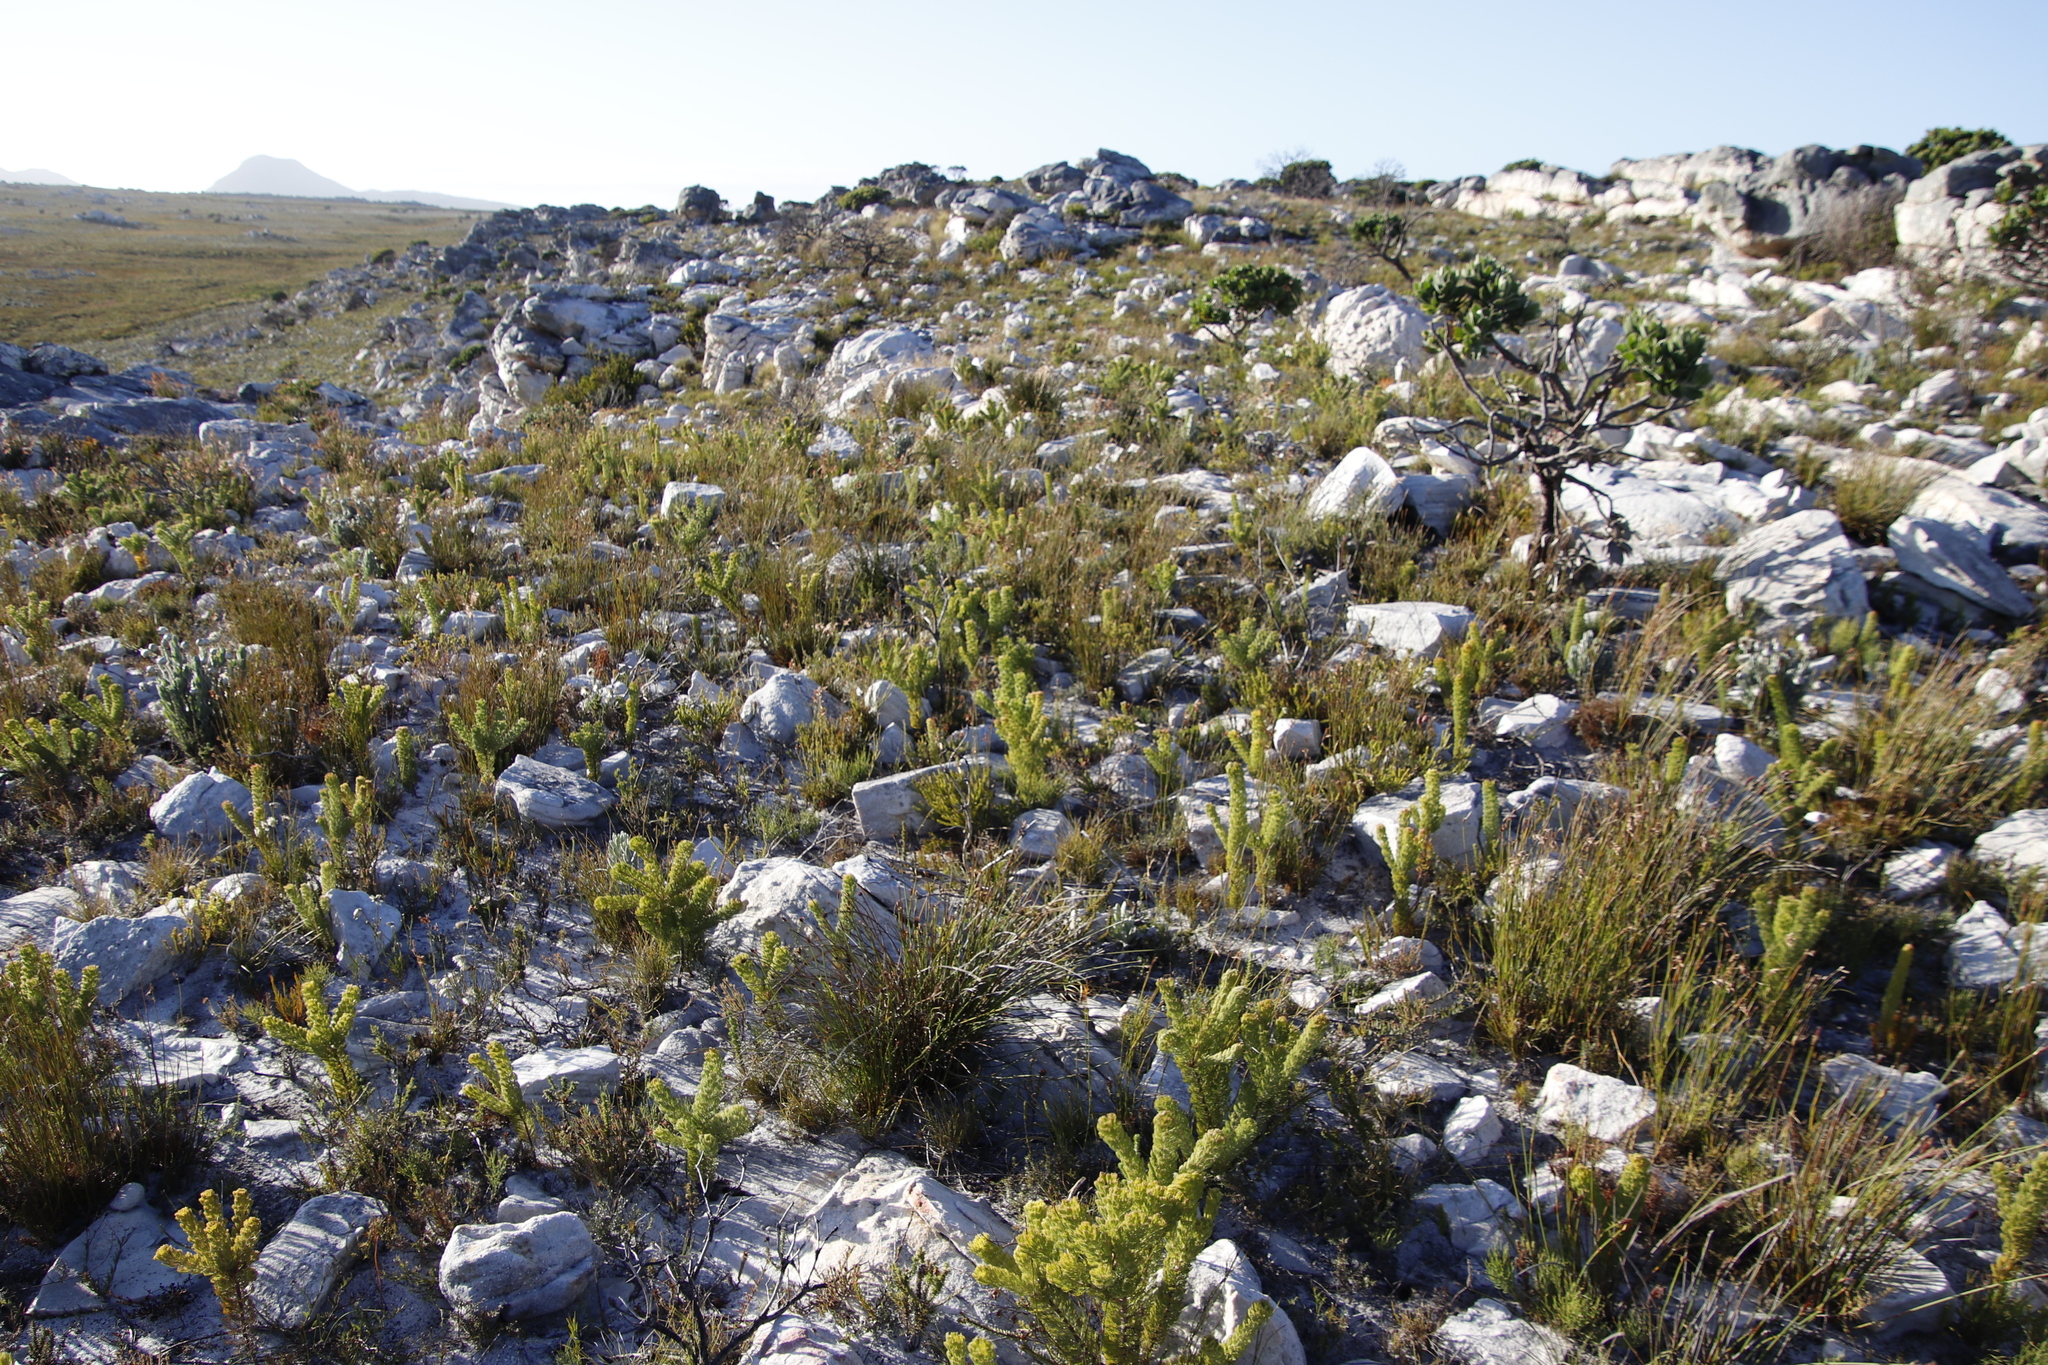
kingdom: Plantae
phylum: Tracheophyta
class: Magnoliopsida
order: Proteales
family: Proteaceae
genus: Serruria
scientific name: Serruria villosa
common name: Golden spiderhead
